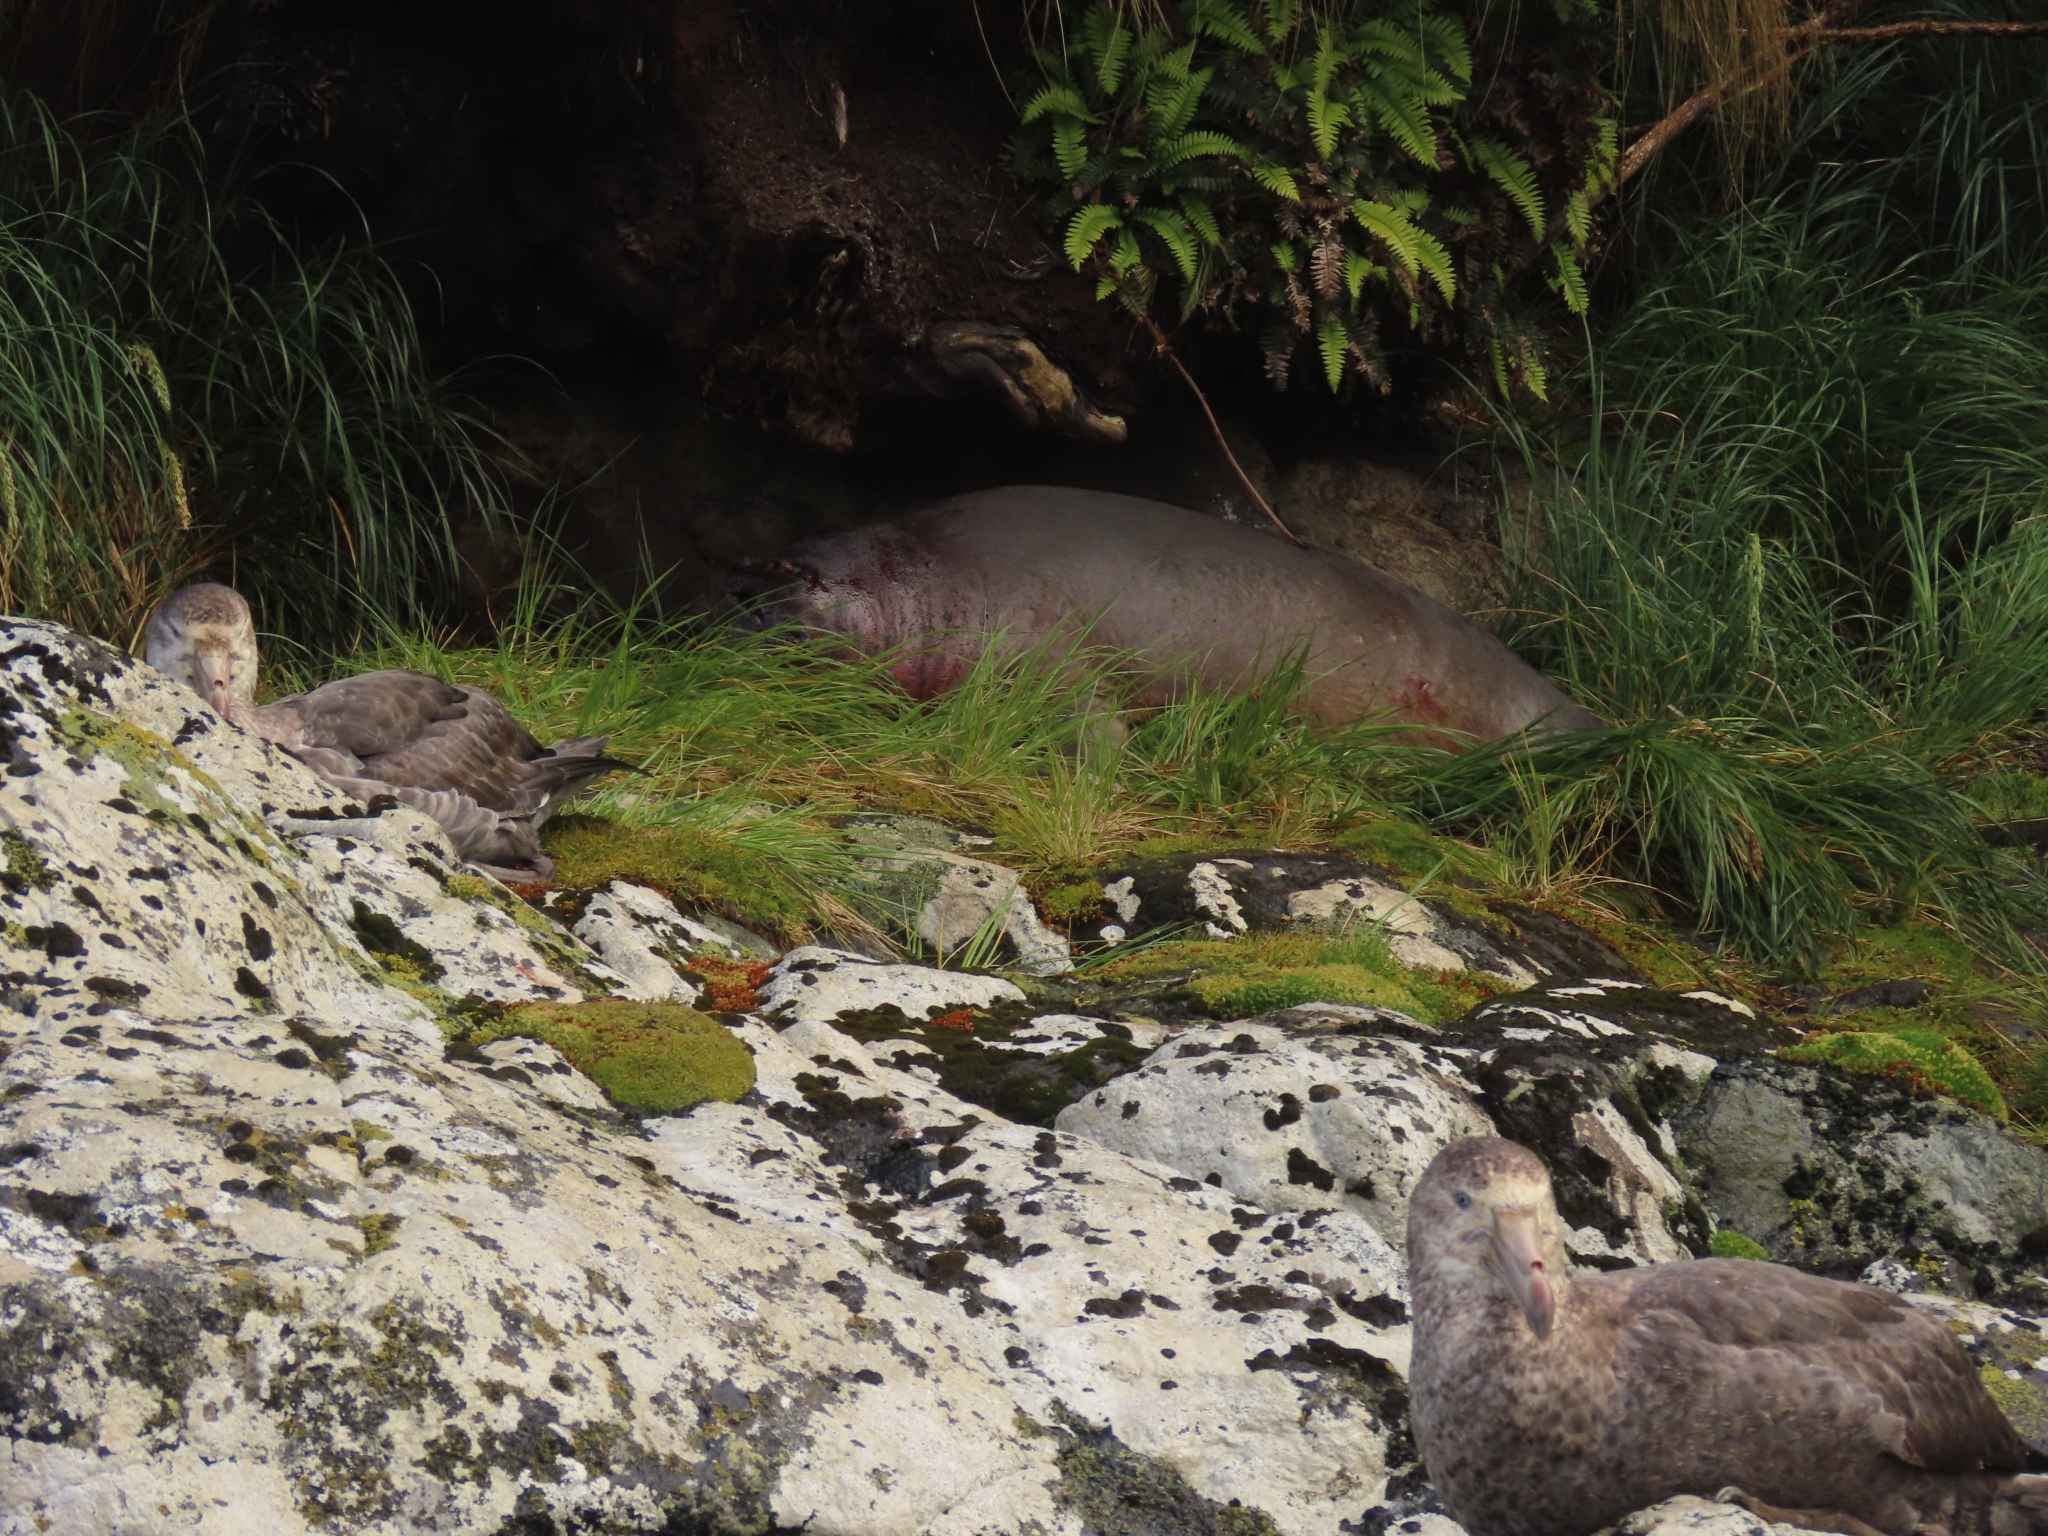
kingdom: Animalia
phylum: Chordata
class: Mammalia
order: Carnivora
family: Phocidae
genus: Mirounga
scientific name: Mirounga leonina
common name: Southern elephant seal
